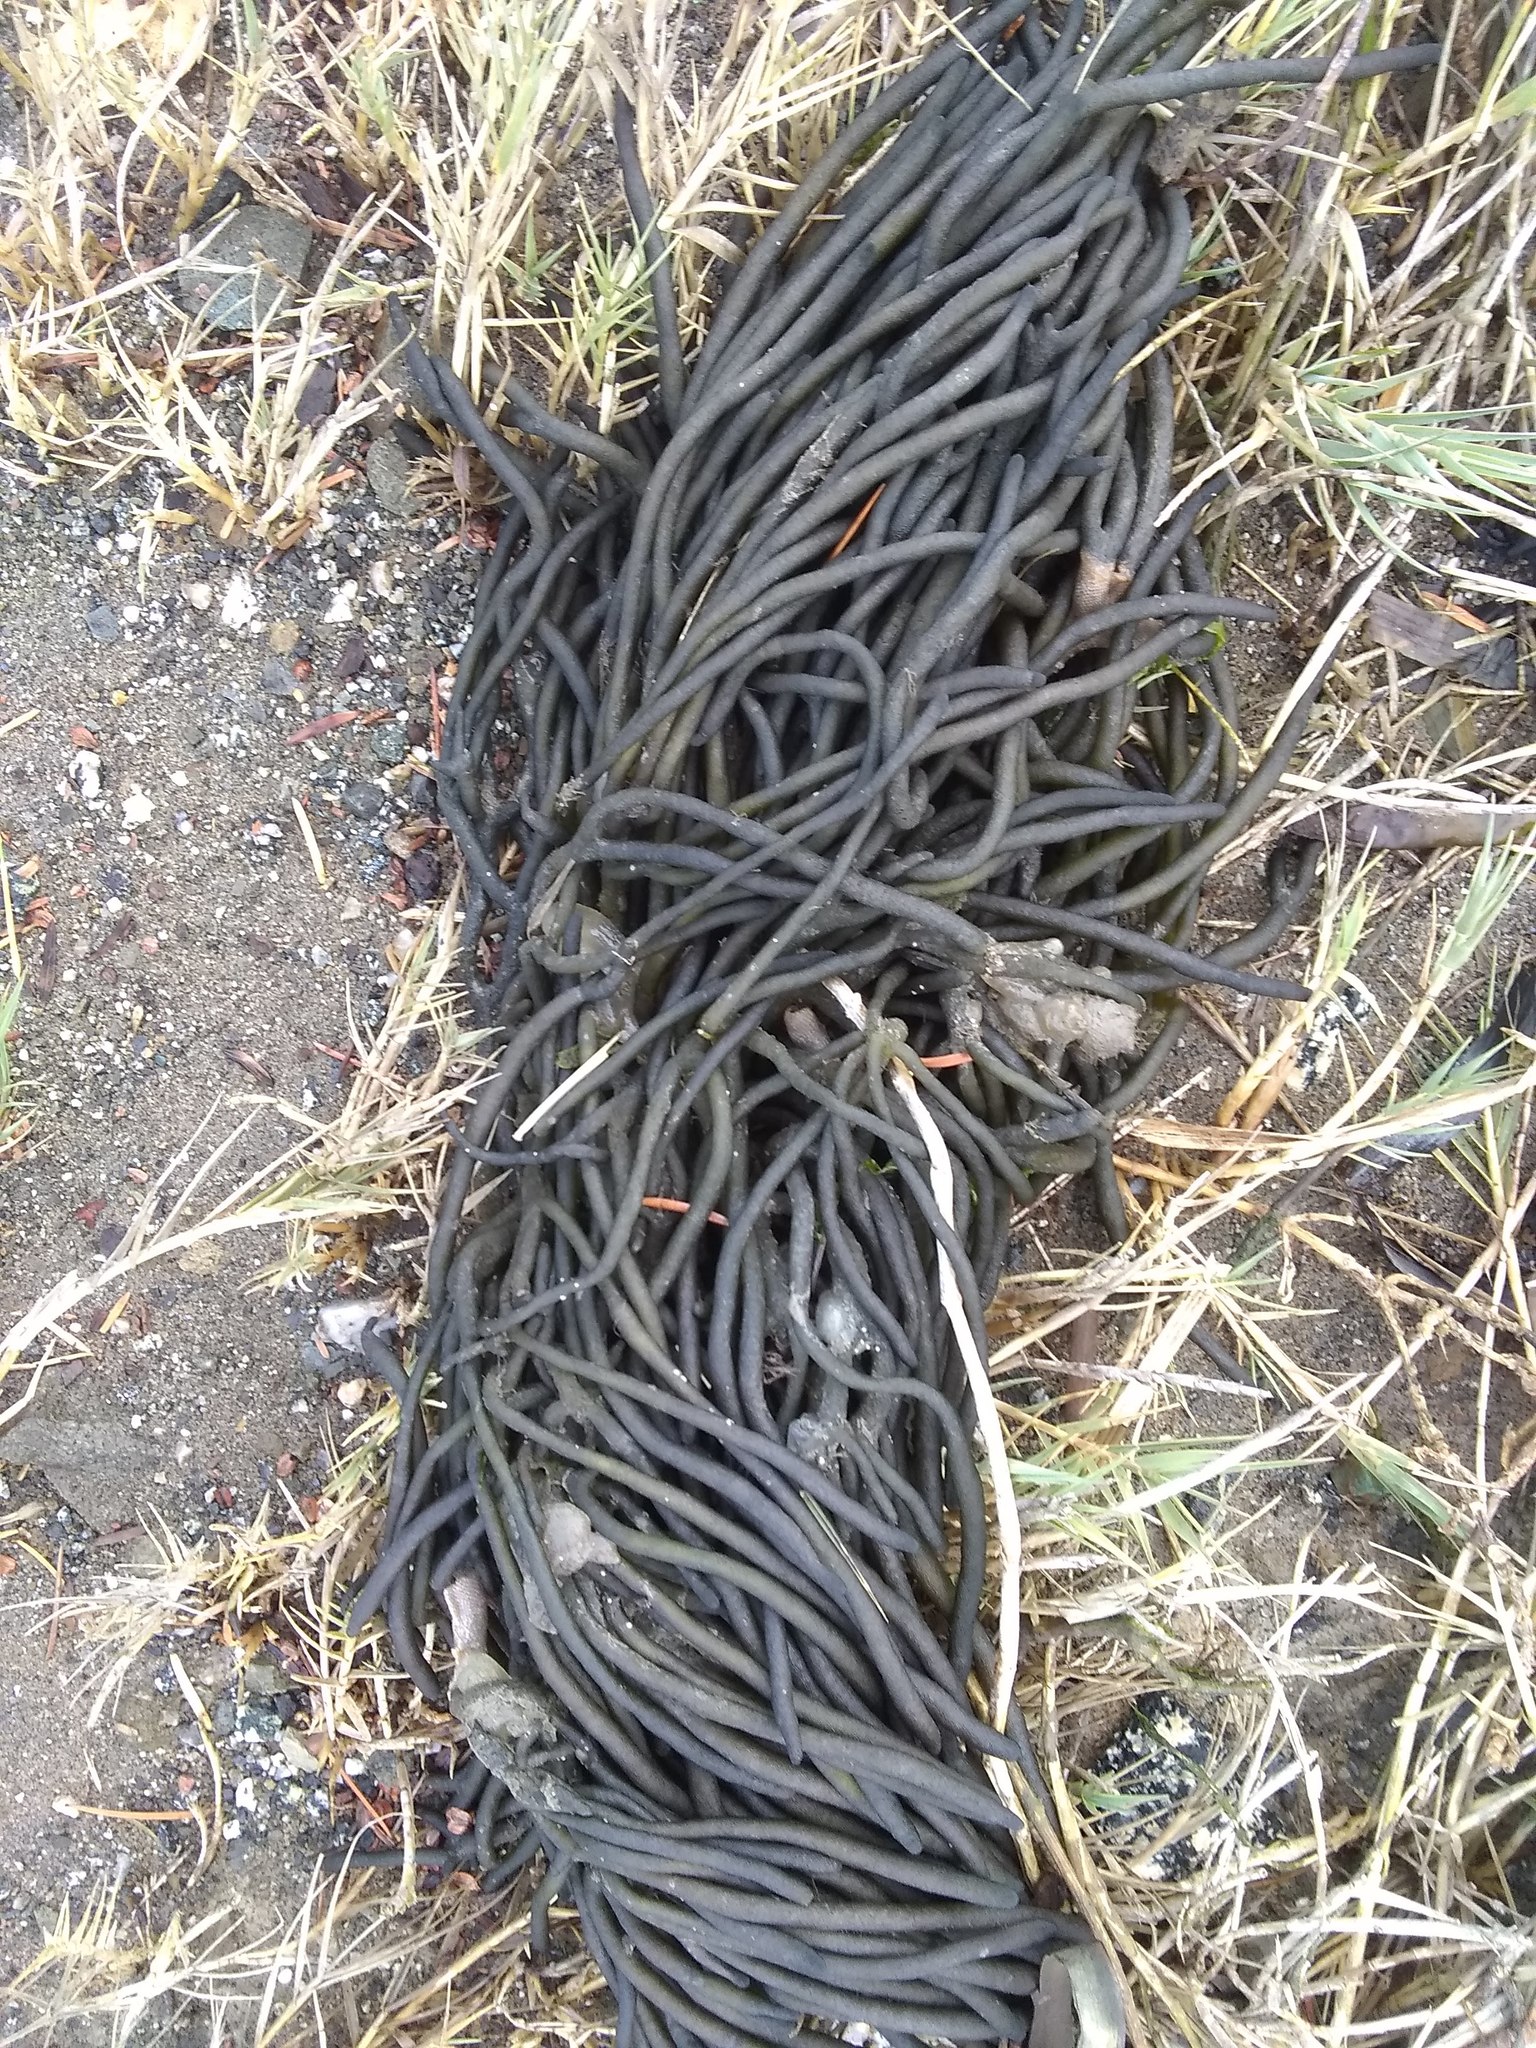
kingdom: Plantae
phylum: Chlorophyta
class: Ulvophyceae
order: Bryopsidales
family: Codiaceae
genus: Codium
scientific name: Codium fragile
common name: Dead man's fingers
